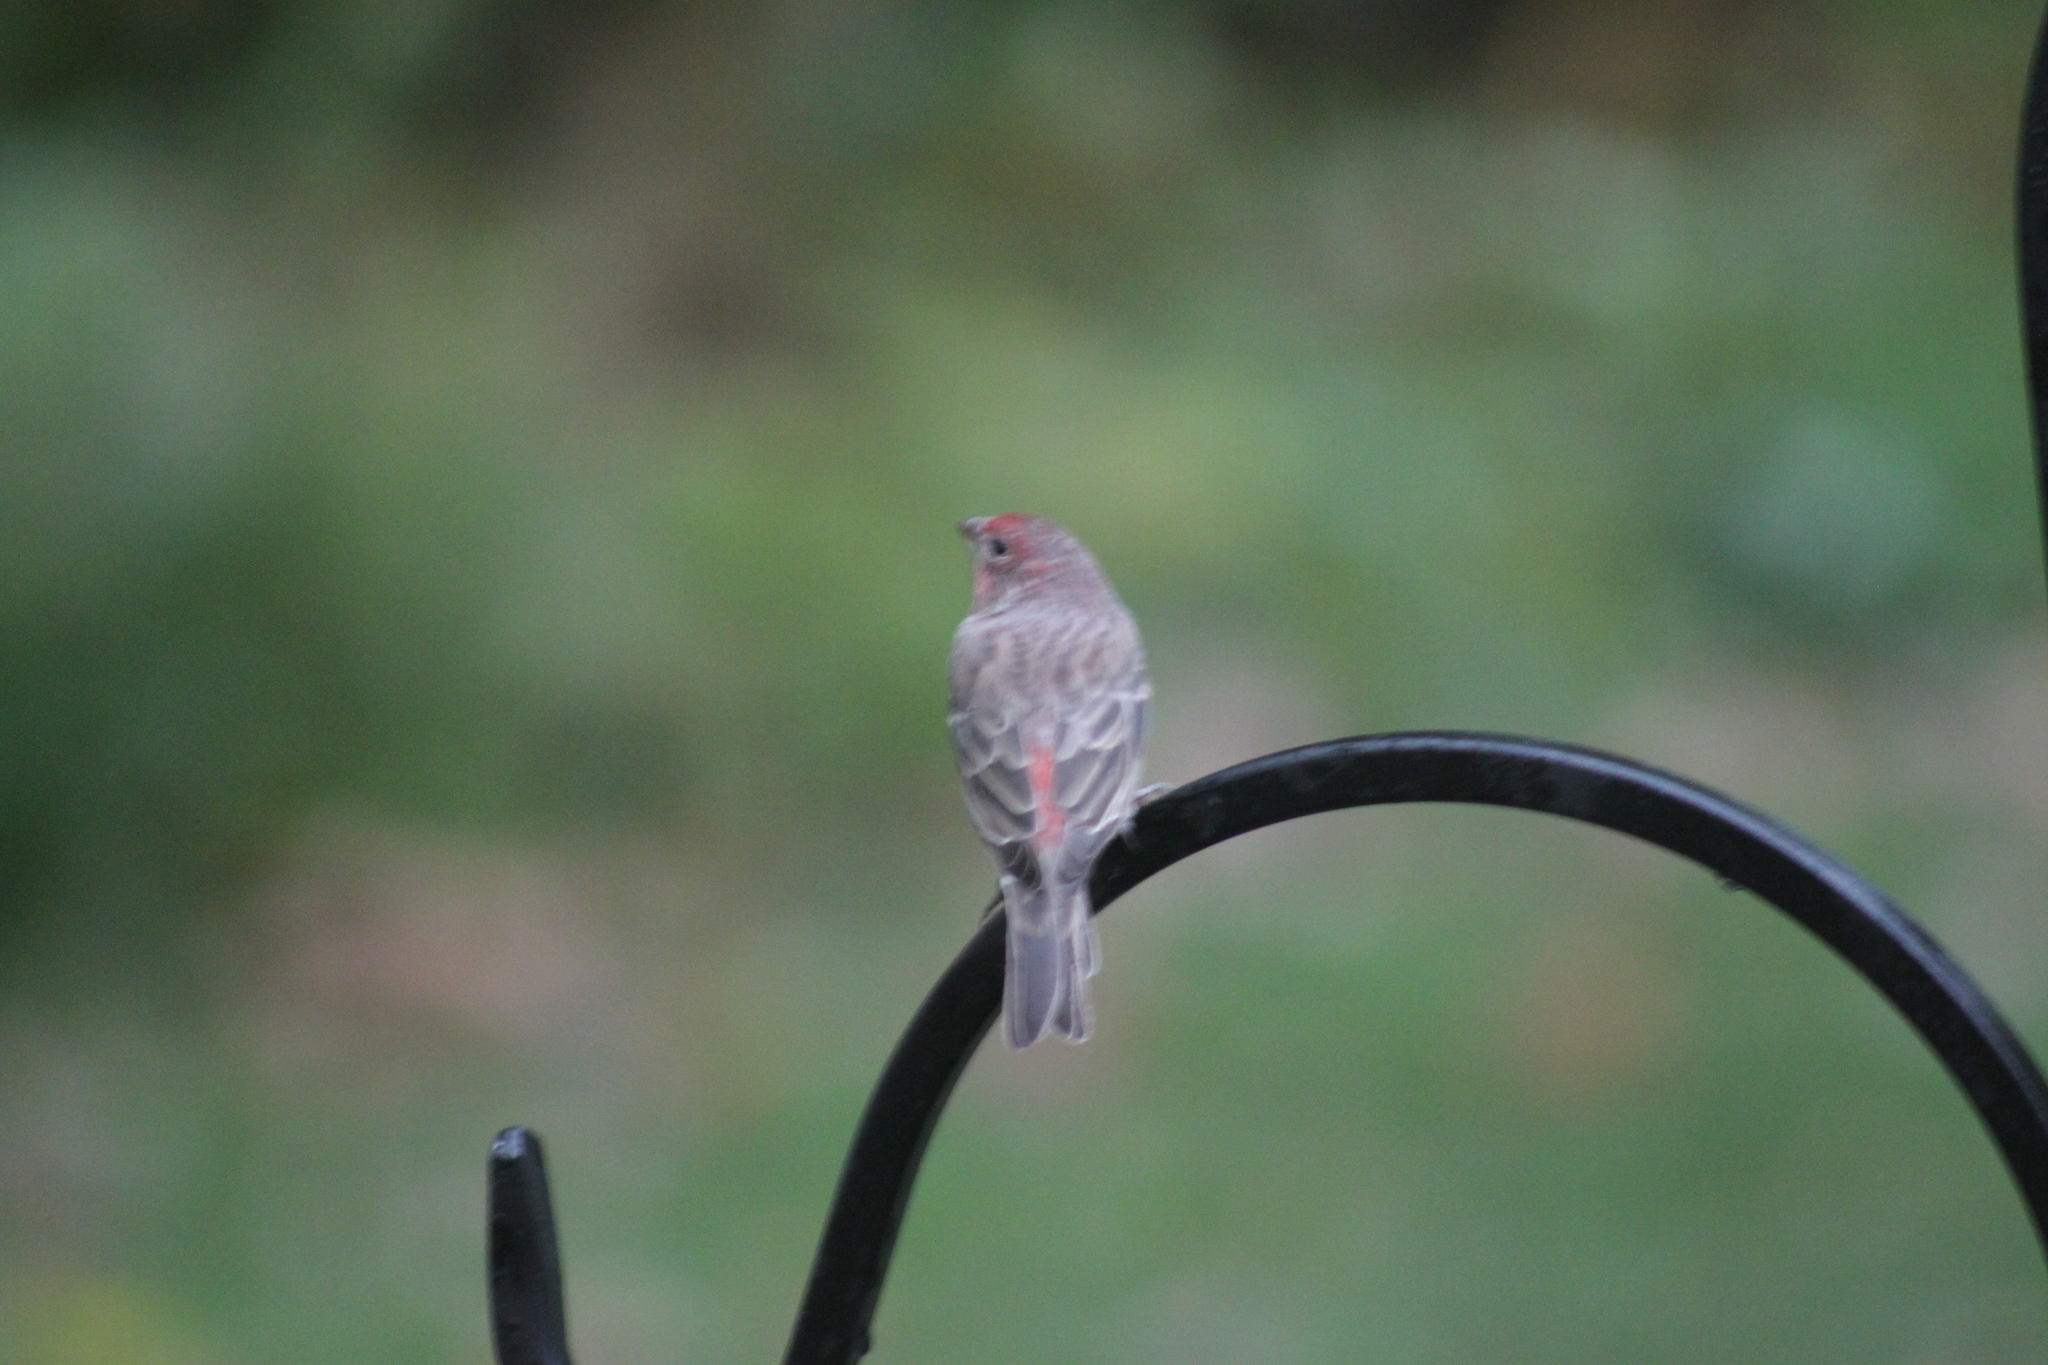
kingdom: Animalia
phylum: Chordata
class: Aves
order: Passeriformes
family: Fringillidae
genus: Haemorhous
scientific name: Haemorhous mexicanus
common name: House finch
